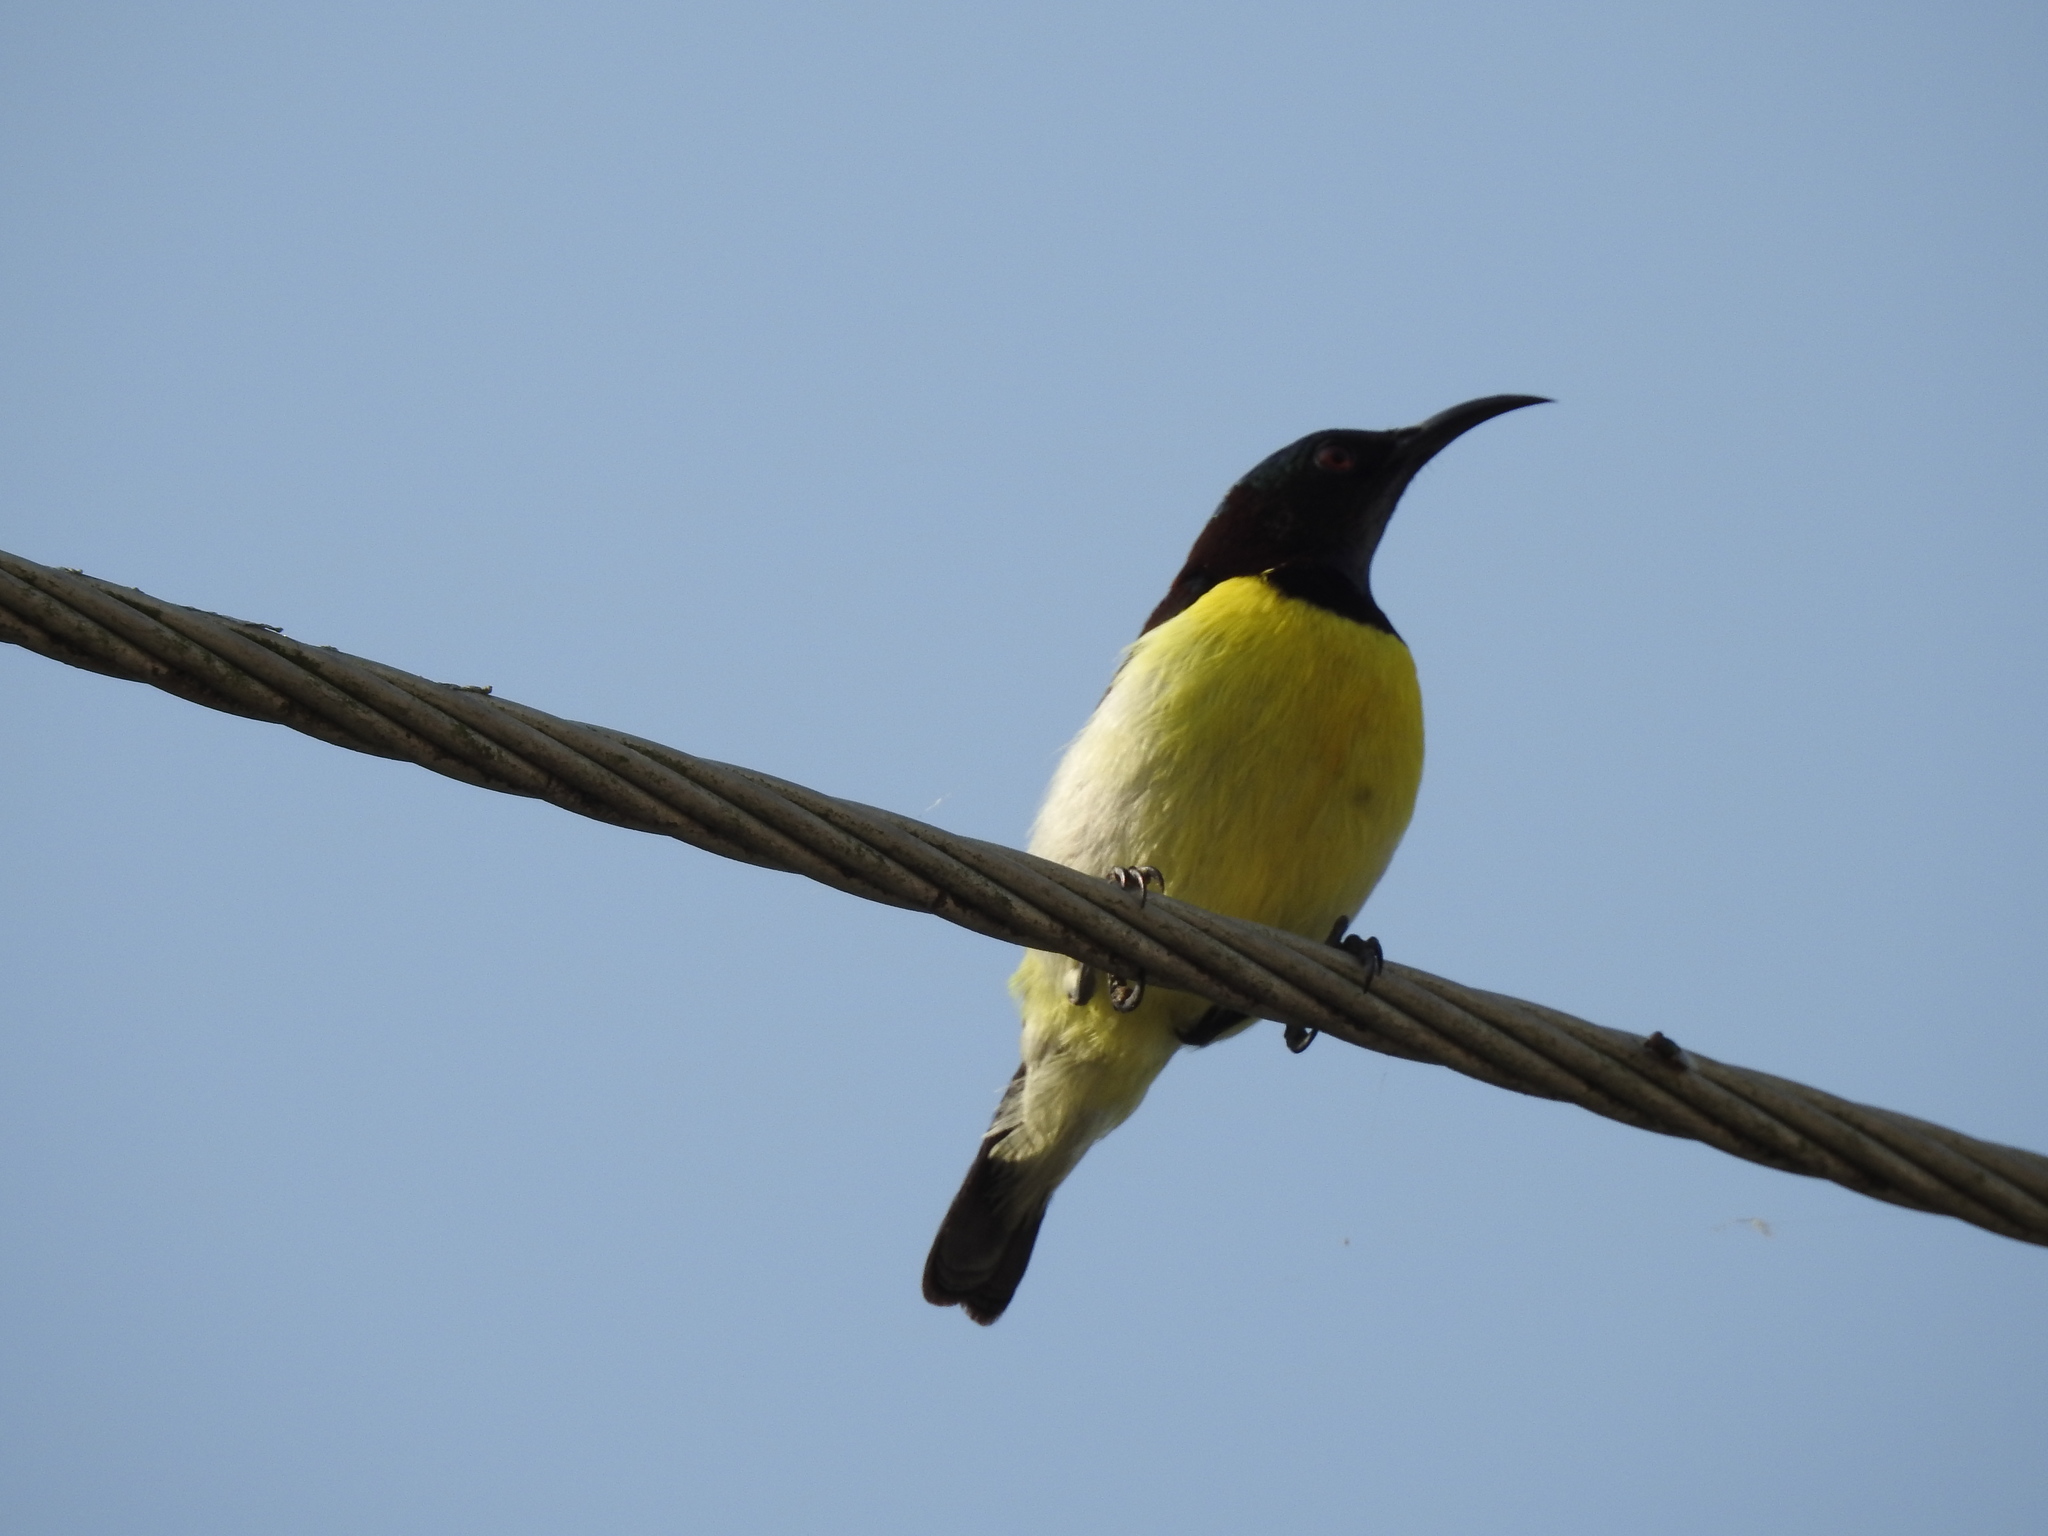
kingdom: Animalia
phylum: Chordata
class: Aves
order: Passeriformes
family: Nectariniidae
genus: Leptocoma
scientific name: Leptocoma zeylonica
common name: Purple-rumped sunbird
